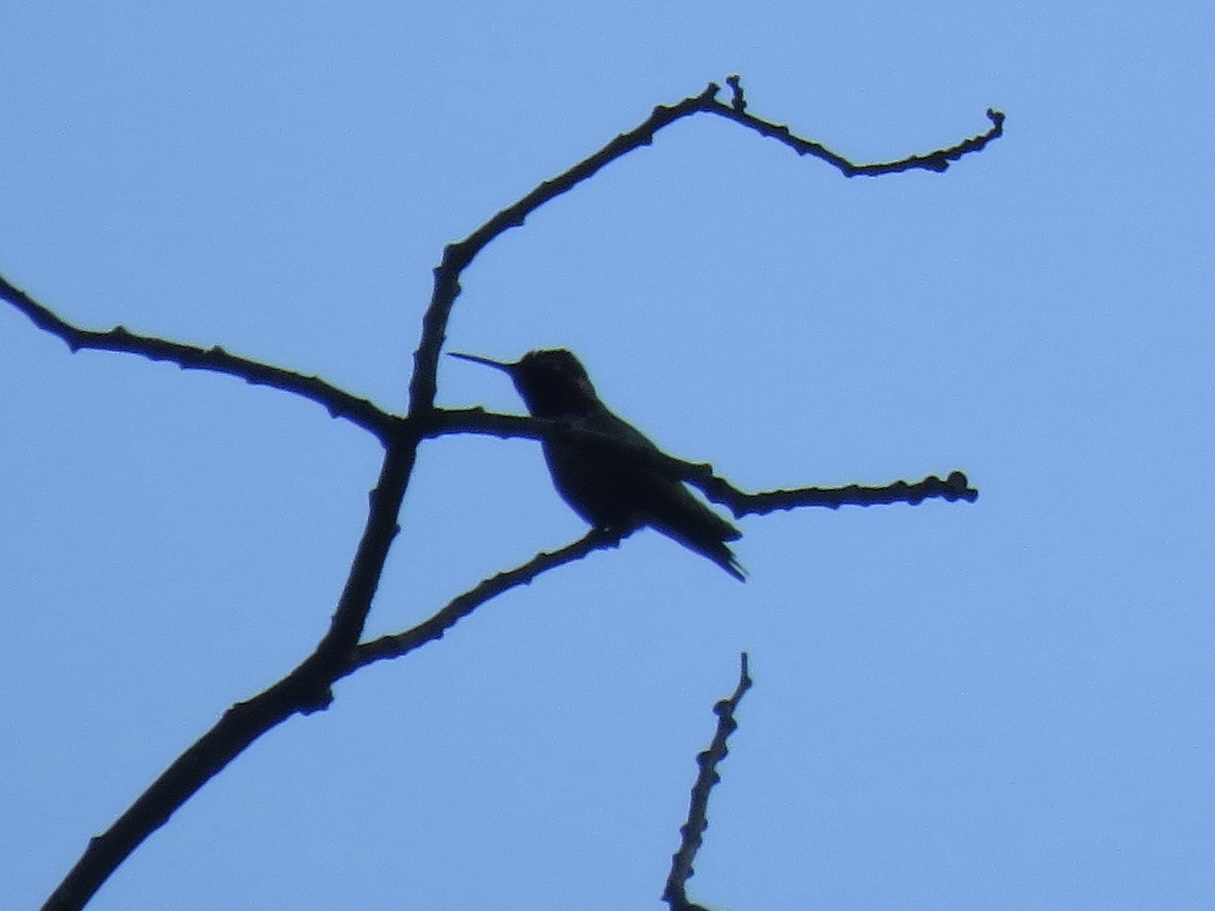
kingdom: Animalia
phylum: Chordata
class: Aves
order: Apodiformes
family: Trochilidae
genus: Calypte
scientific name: Calypte anna
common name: Anna's hummingbird
